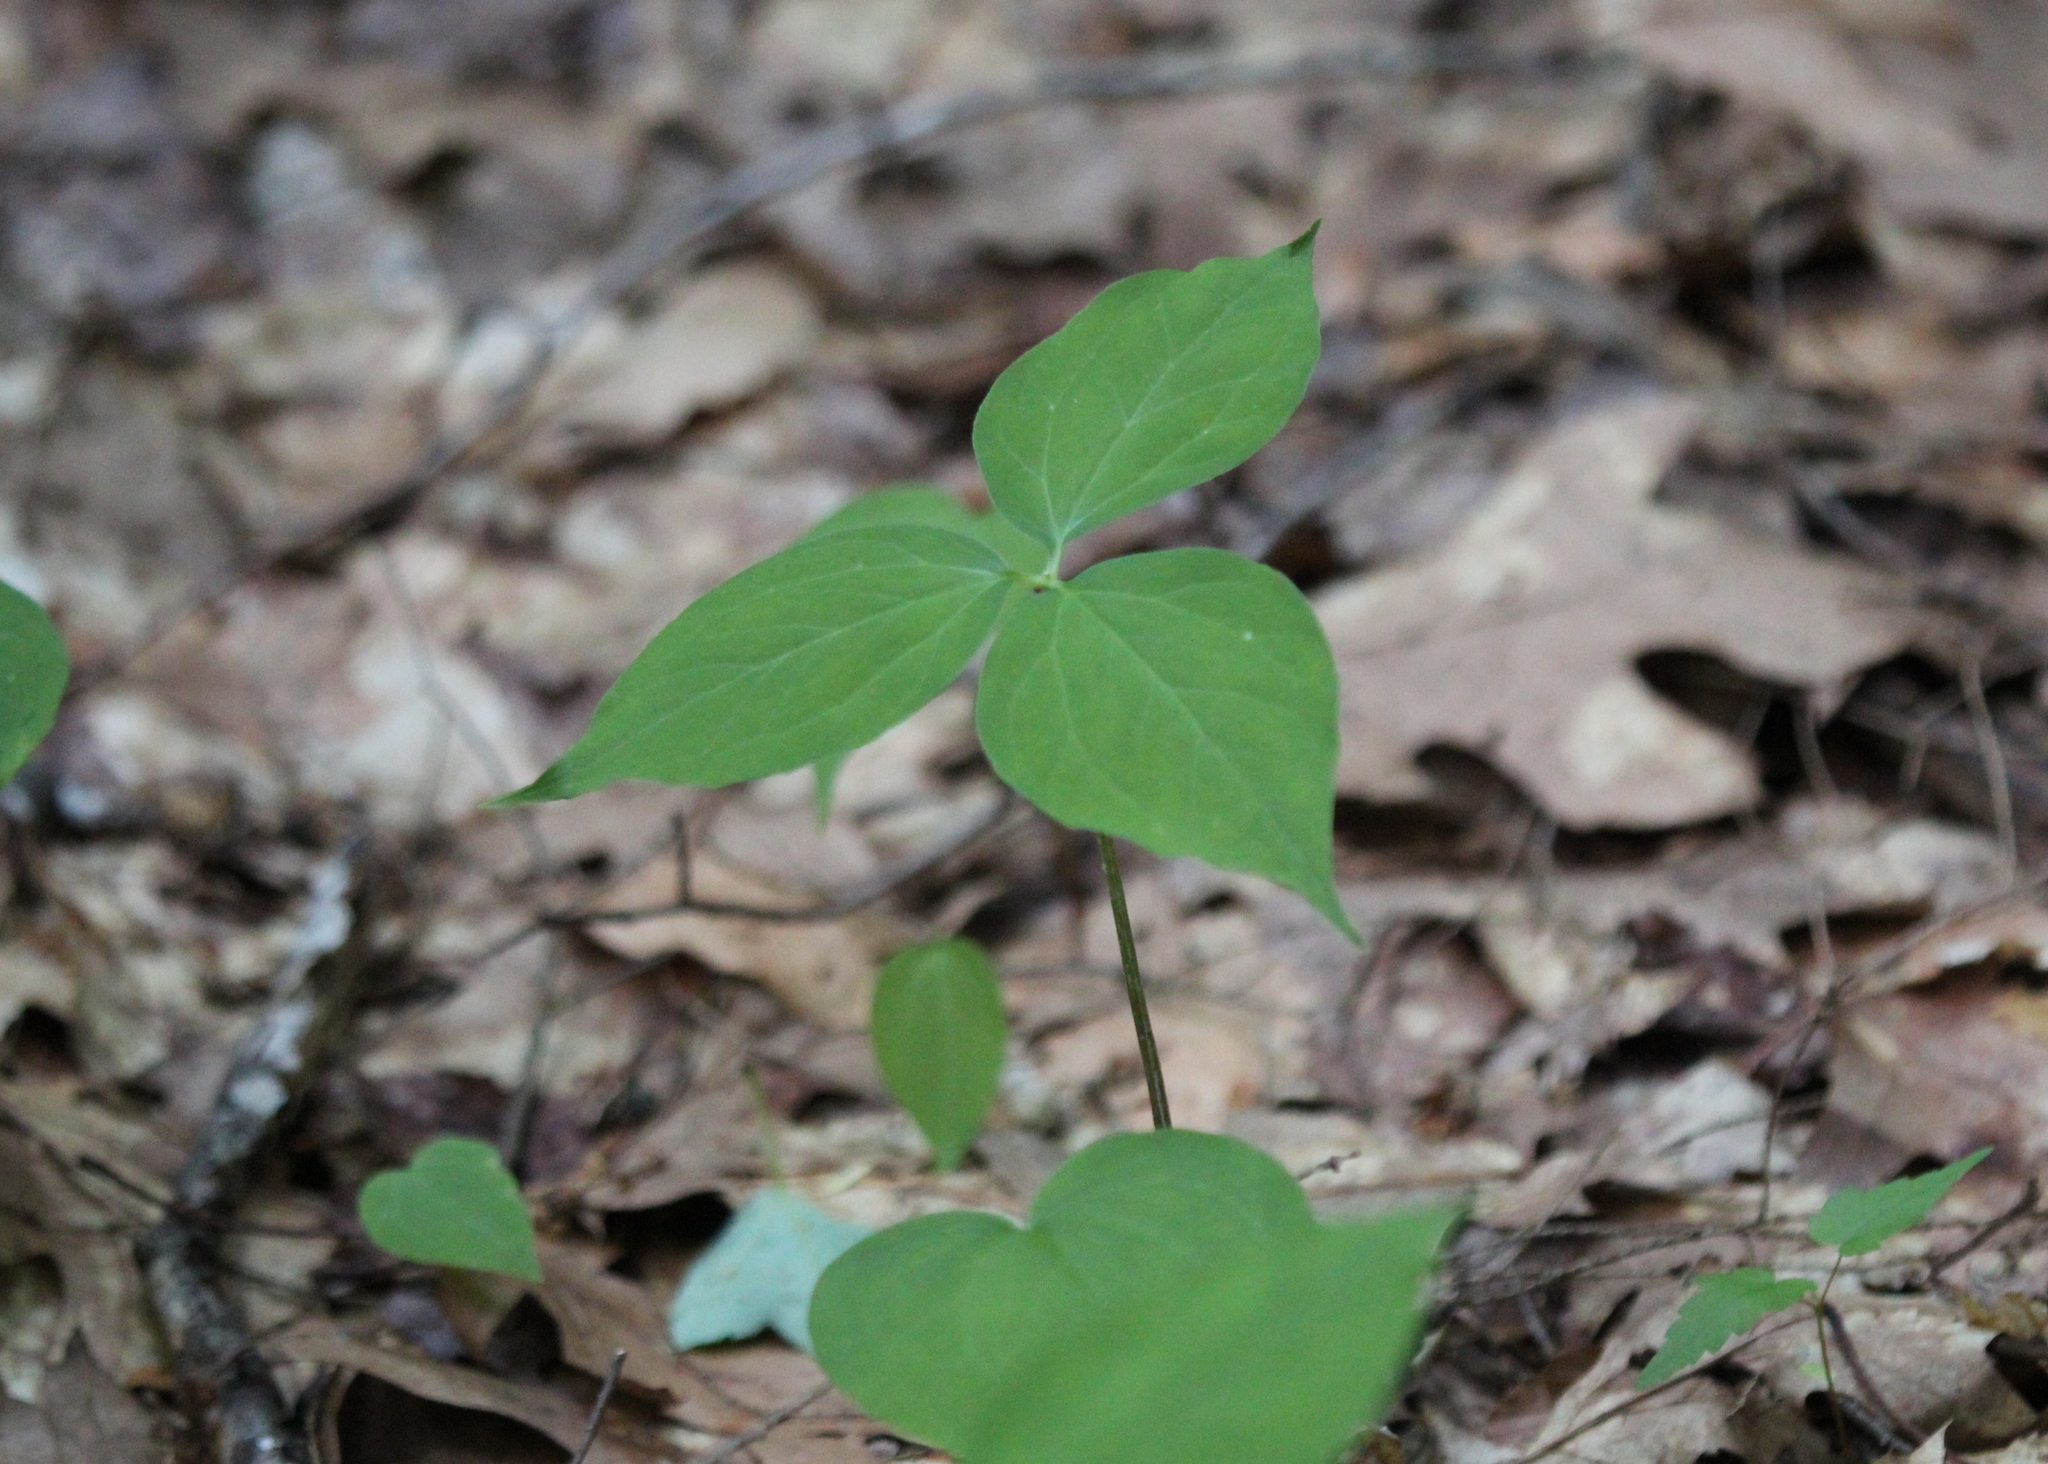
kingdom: Plantae
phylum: Tracheophyta
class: Liliopsida
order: Liliales
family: Melanthiaceae
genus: Trillium
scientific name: Trillium undulatum
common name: Paint trillium
